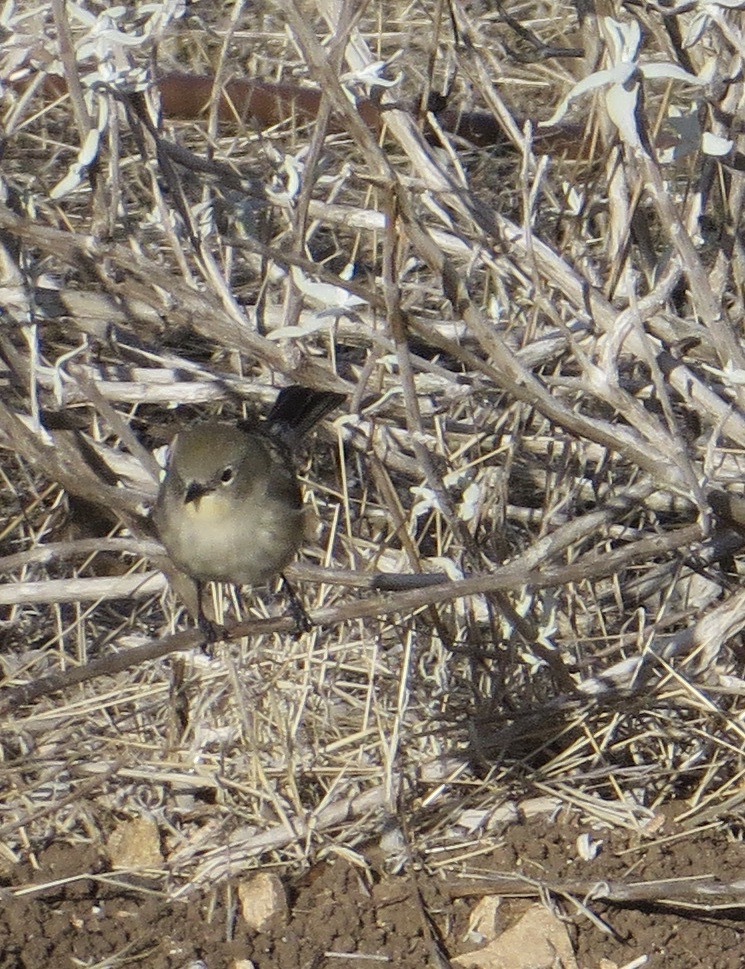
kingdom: Animalia
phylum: Chordata
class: Aves
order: Passeriformes
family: Regulidae
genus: Regulus
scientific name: Regulus calendula
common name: Ruby-crowned kinglet
